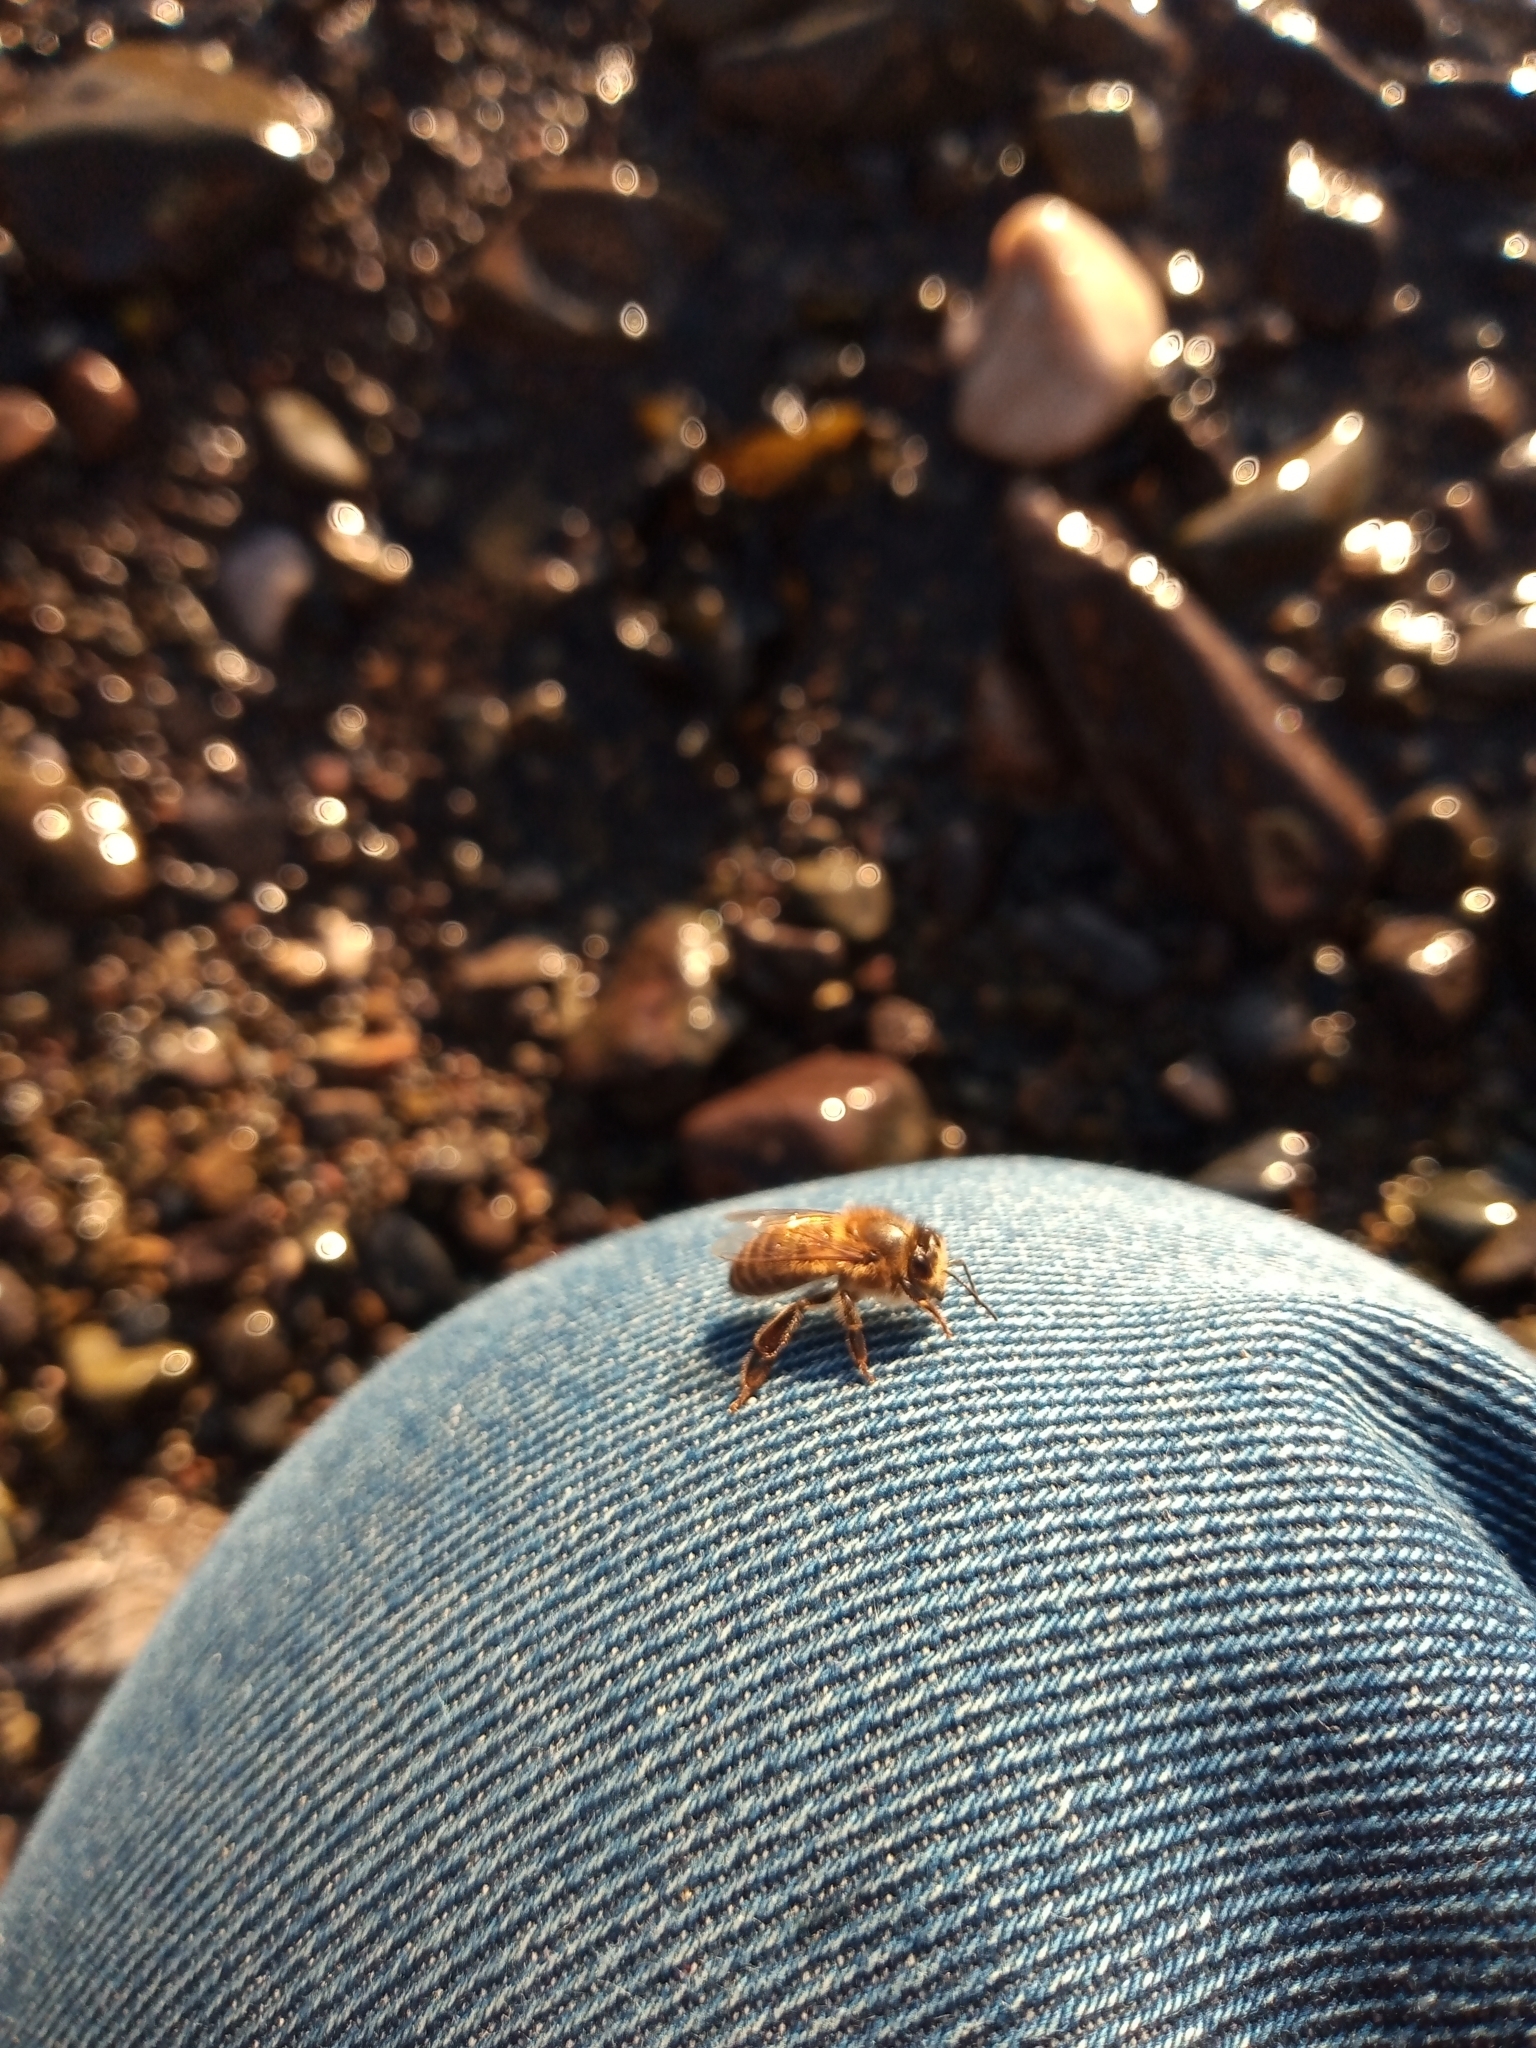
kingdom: Animalia
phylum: Arthropoda
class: Insecta
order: Hymenoptera
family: Apidae
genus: Apis
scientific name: Apis mellifera
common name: Honey bee
